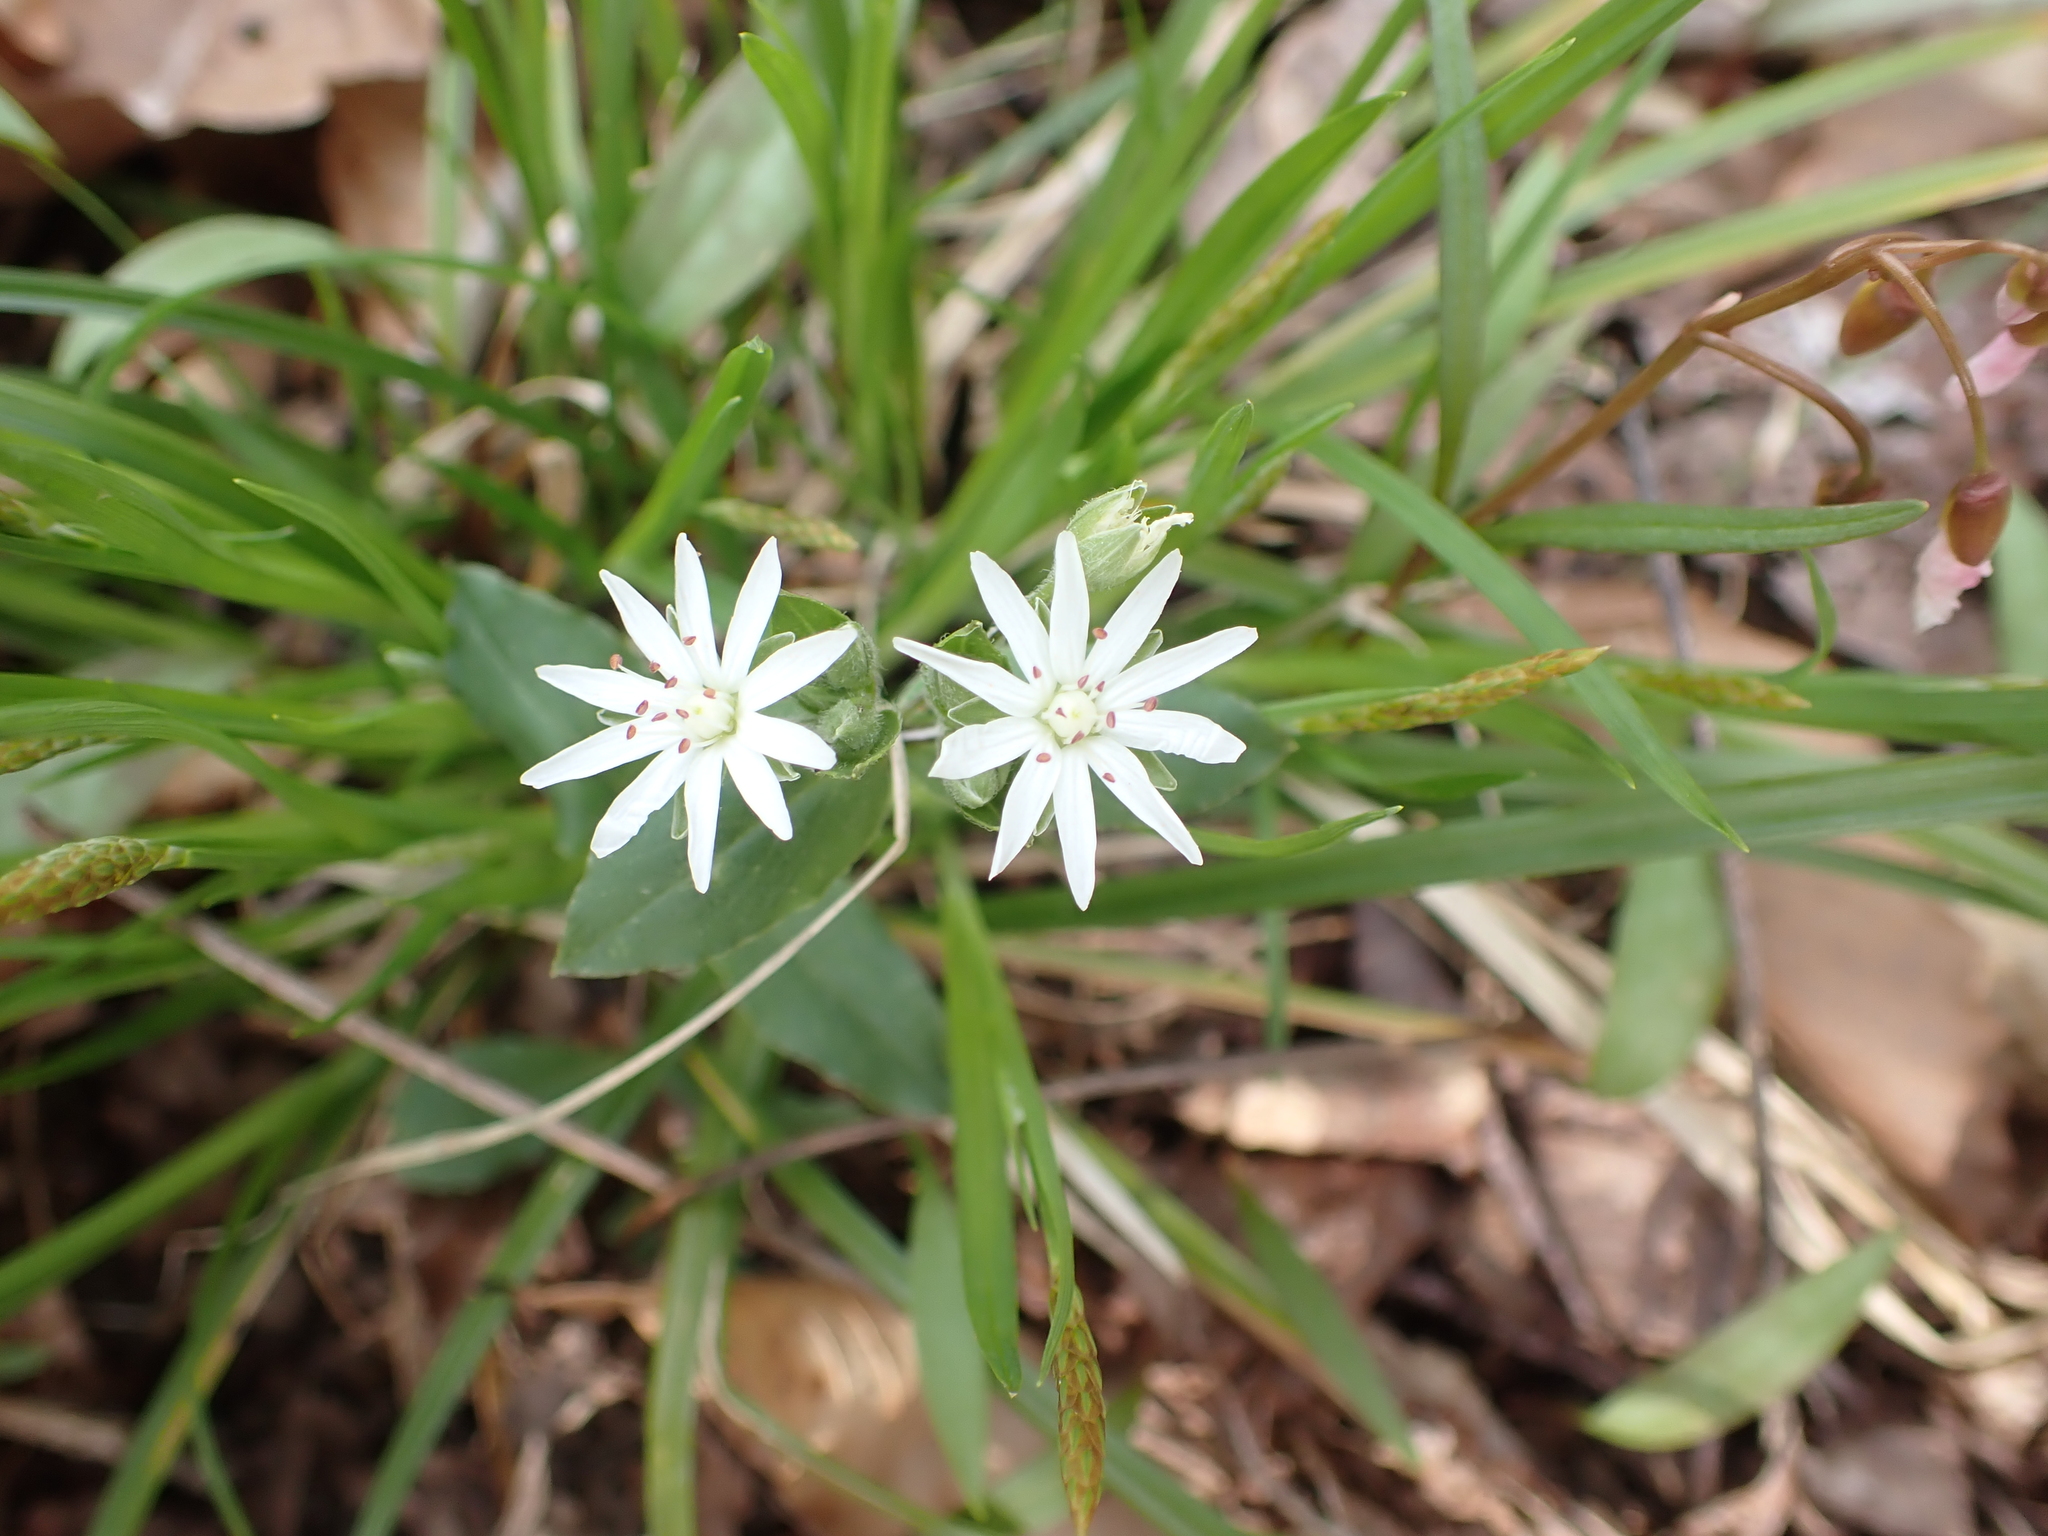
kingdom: Plantae
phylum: Tracheophyta
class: Magnoliopsida
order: Caryophyllales
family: Caryophyllaceae
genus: Stellaria
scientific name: Stellaria pubera
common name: Star chickweed
